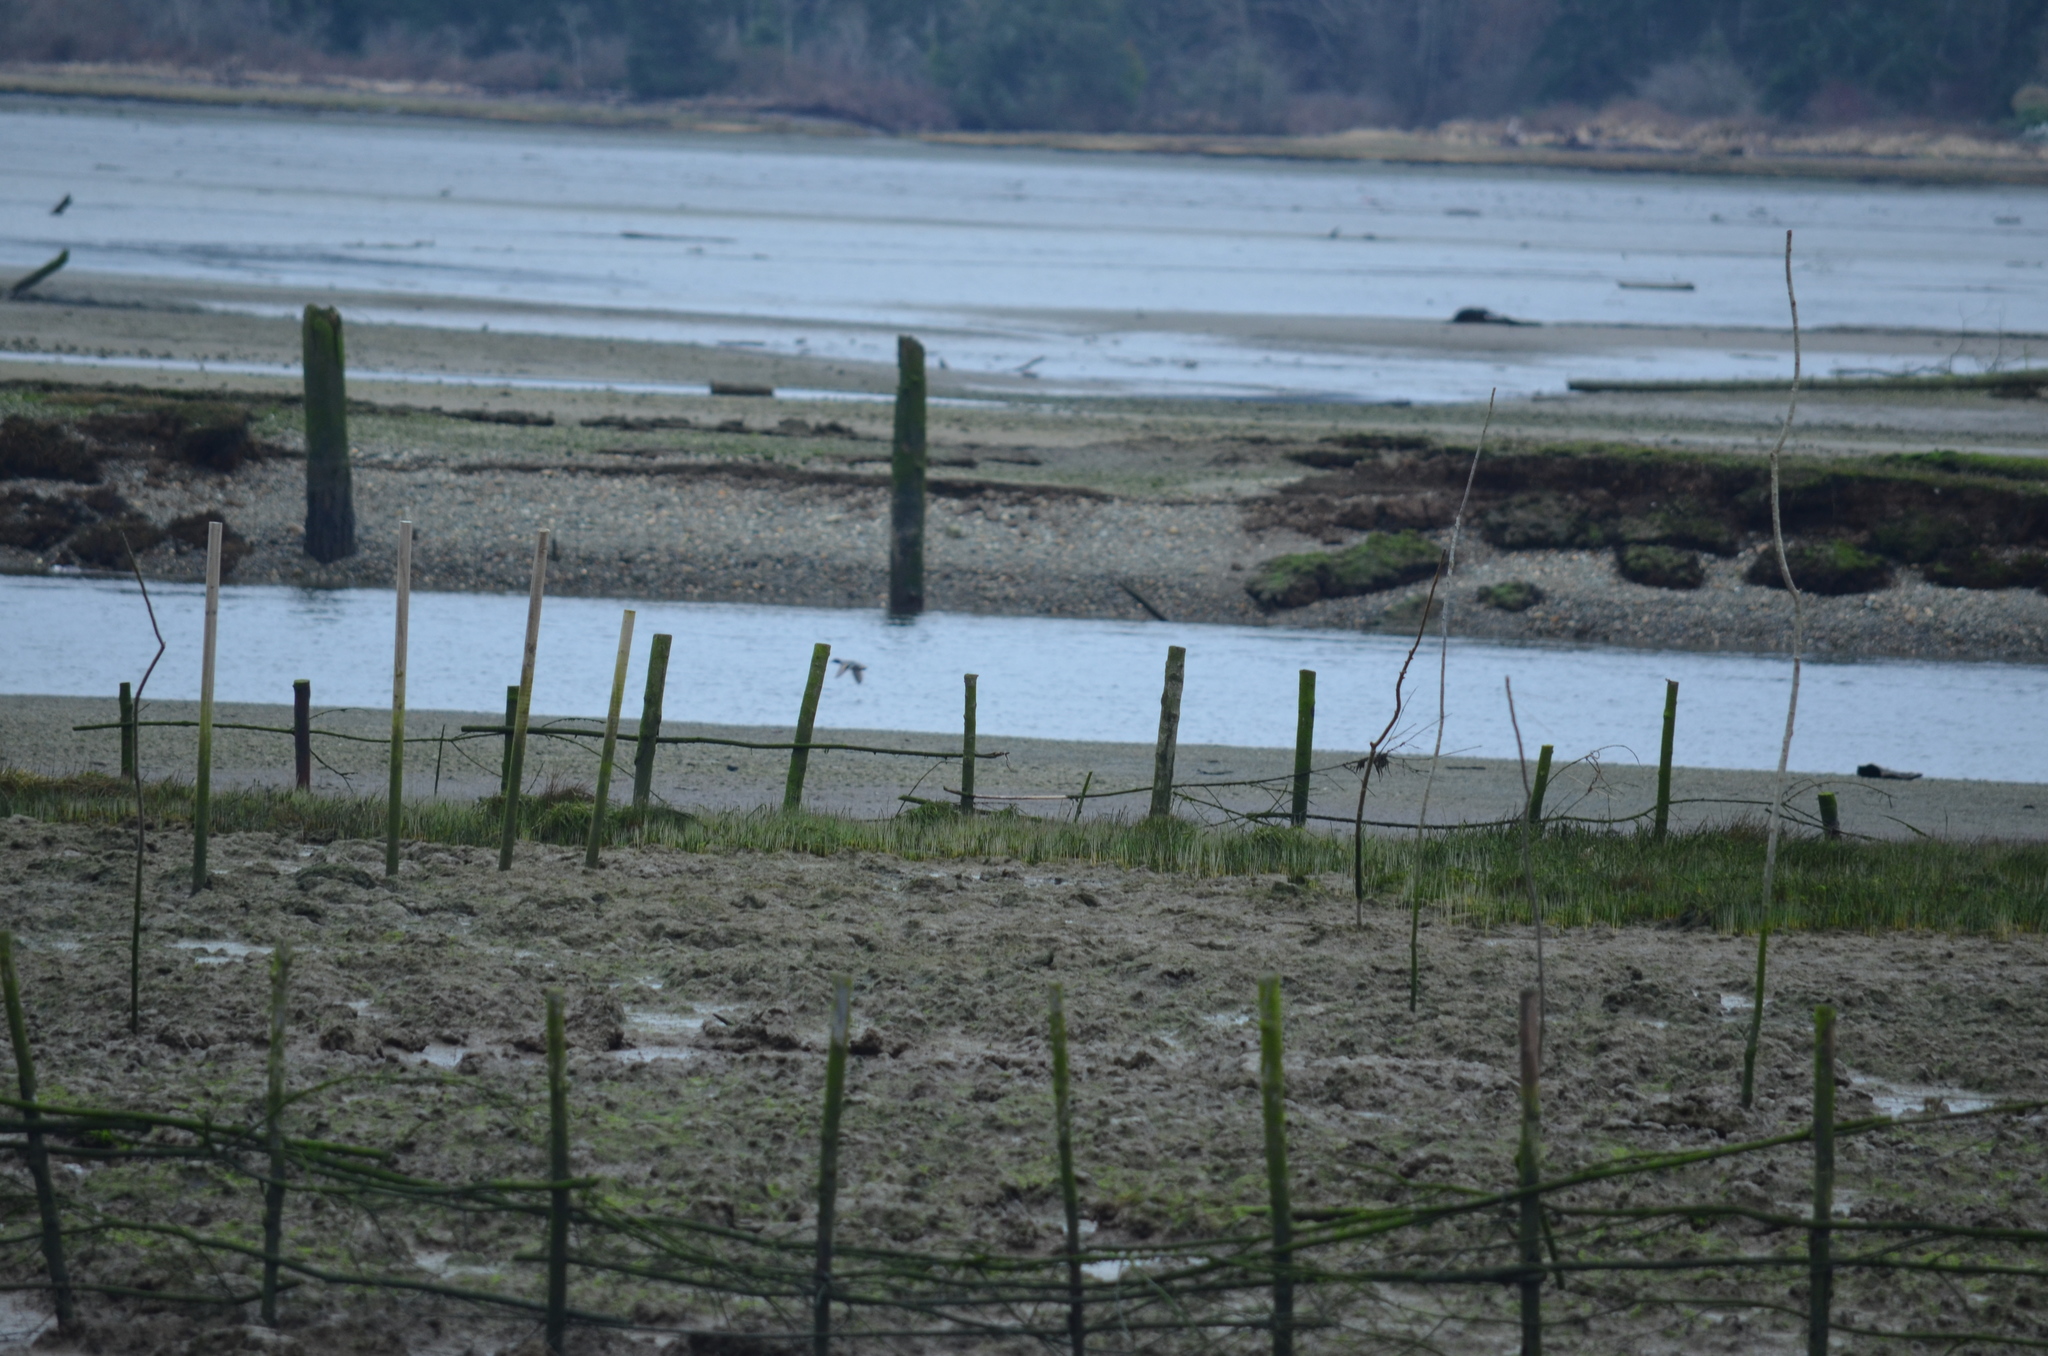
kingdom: Animalia
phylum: Chordata
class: Aves
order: Anseriformes
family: Anatidae
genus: Anas
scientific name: Anas platyrhynchos
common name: Mallard
